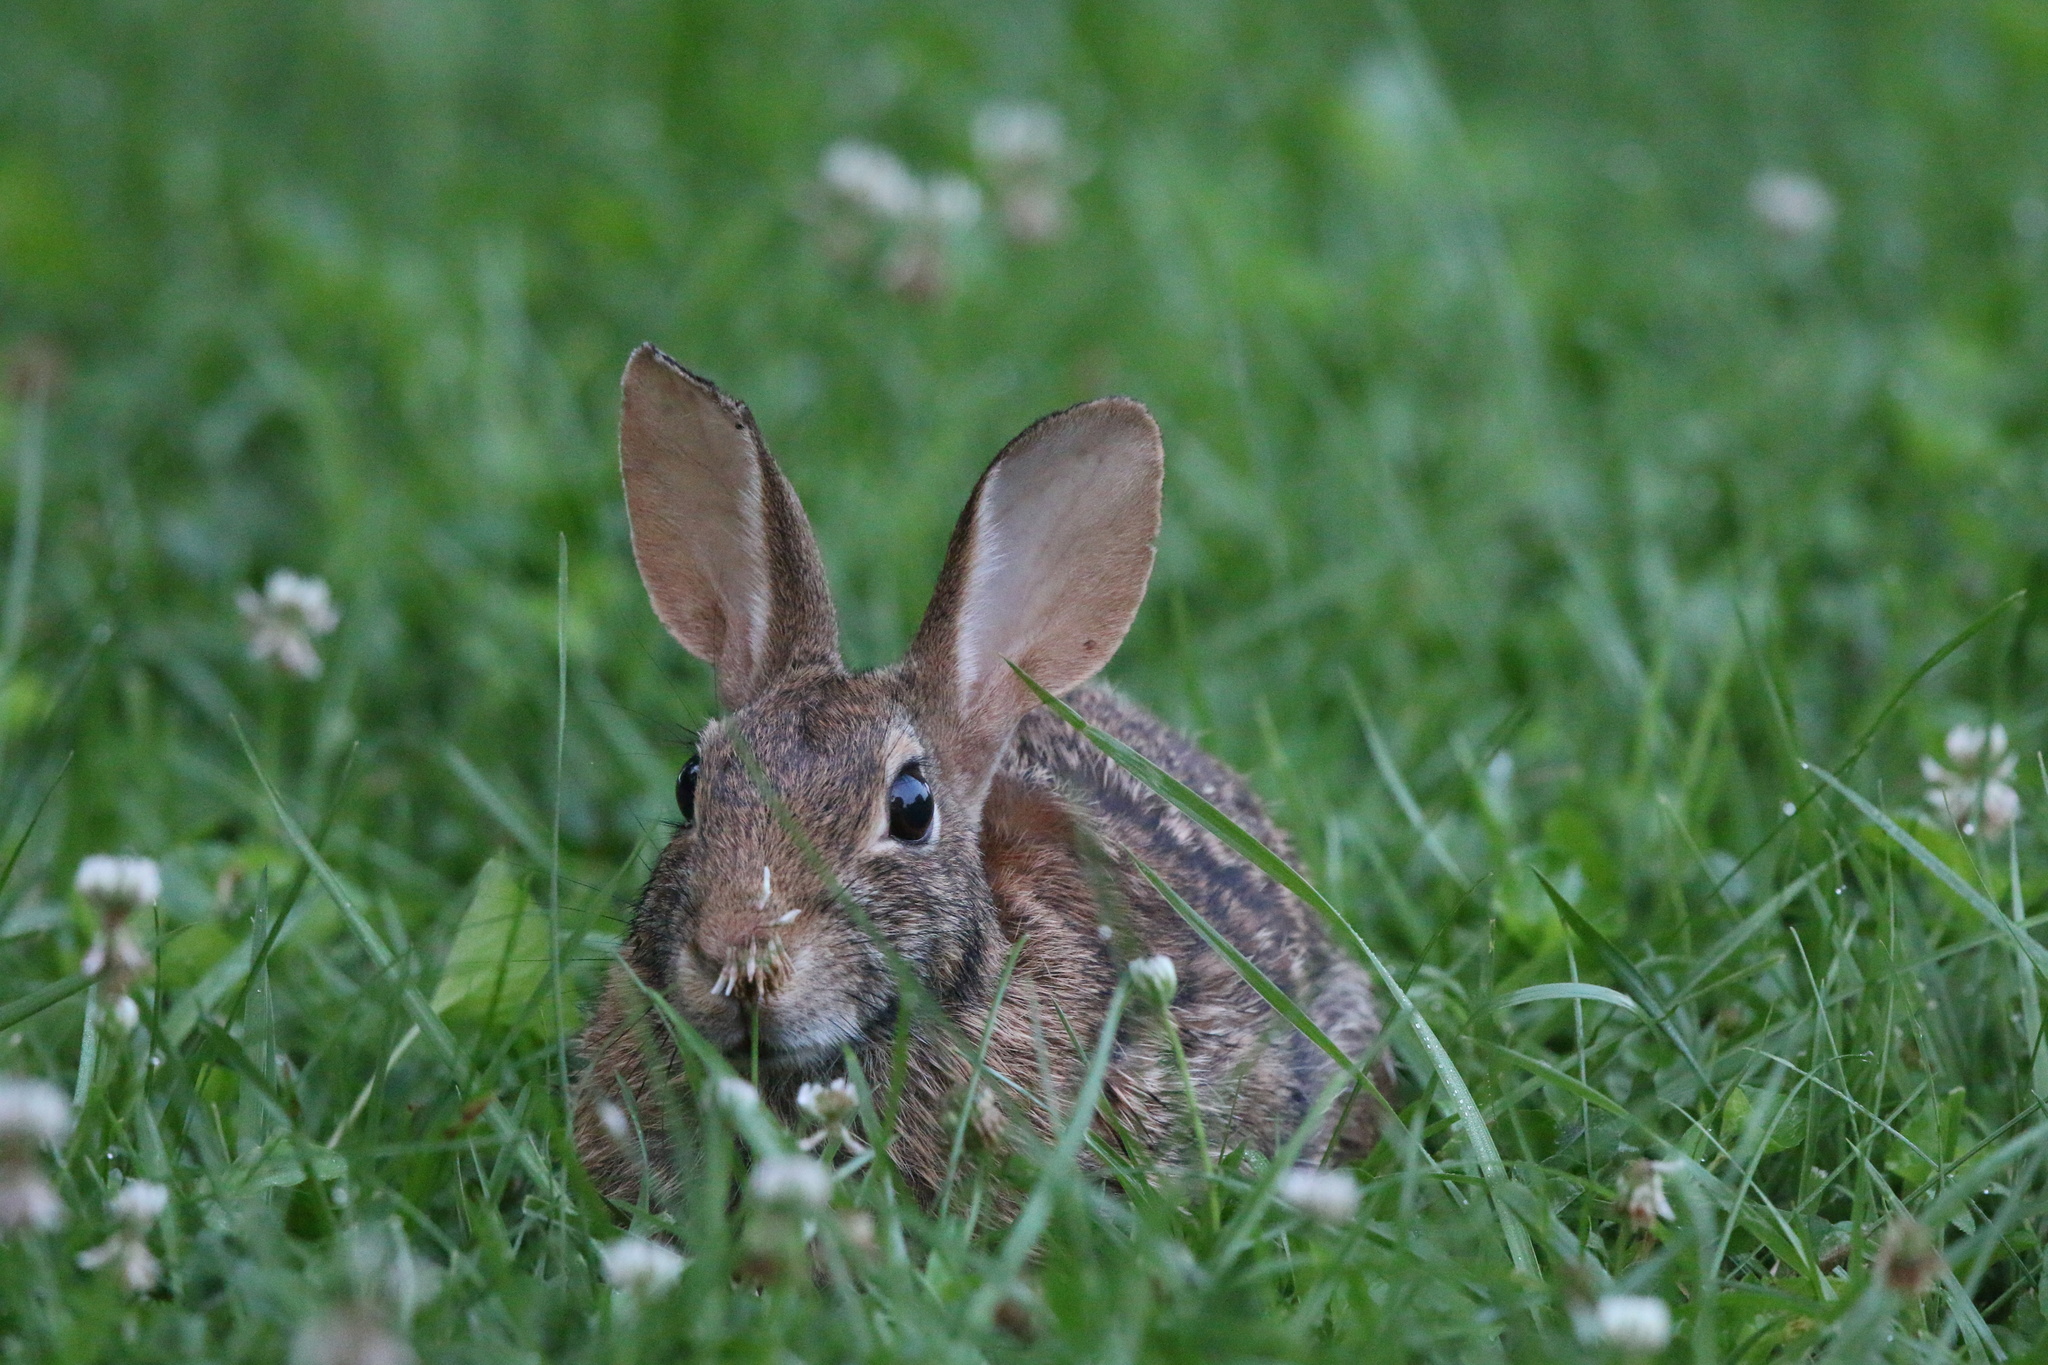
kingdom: Animalia
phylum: Chordata
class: Mammalia
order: Lagomorpha
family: Leporidae
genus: Sylvilagus
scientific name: Sylvilagus floridanus
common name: Eastern cottontail
